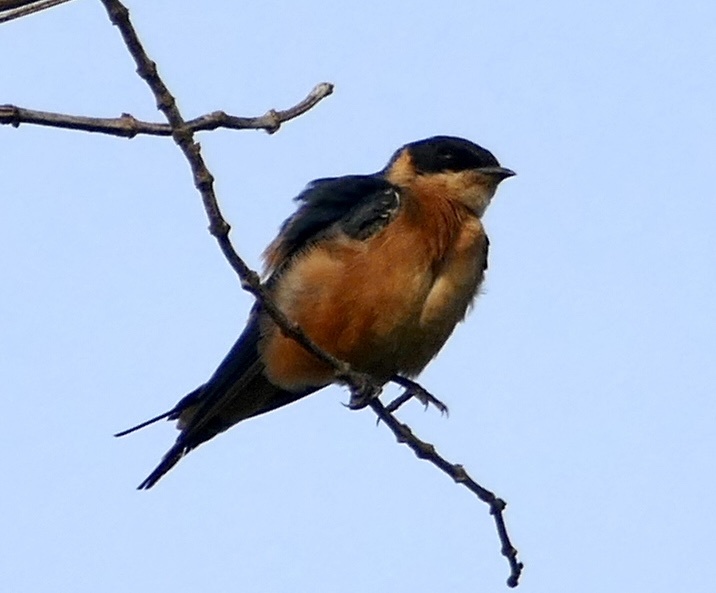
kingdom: Animalia
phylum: Chordata
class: Aves
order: Passeriformes
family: Hirundinidae
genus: Cecropis
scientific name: Cecropis semirufa
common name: Red-breasted swallow
